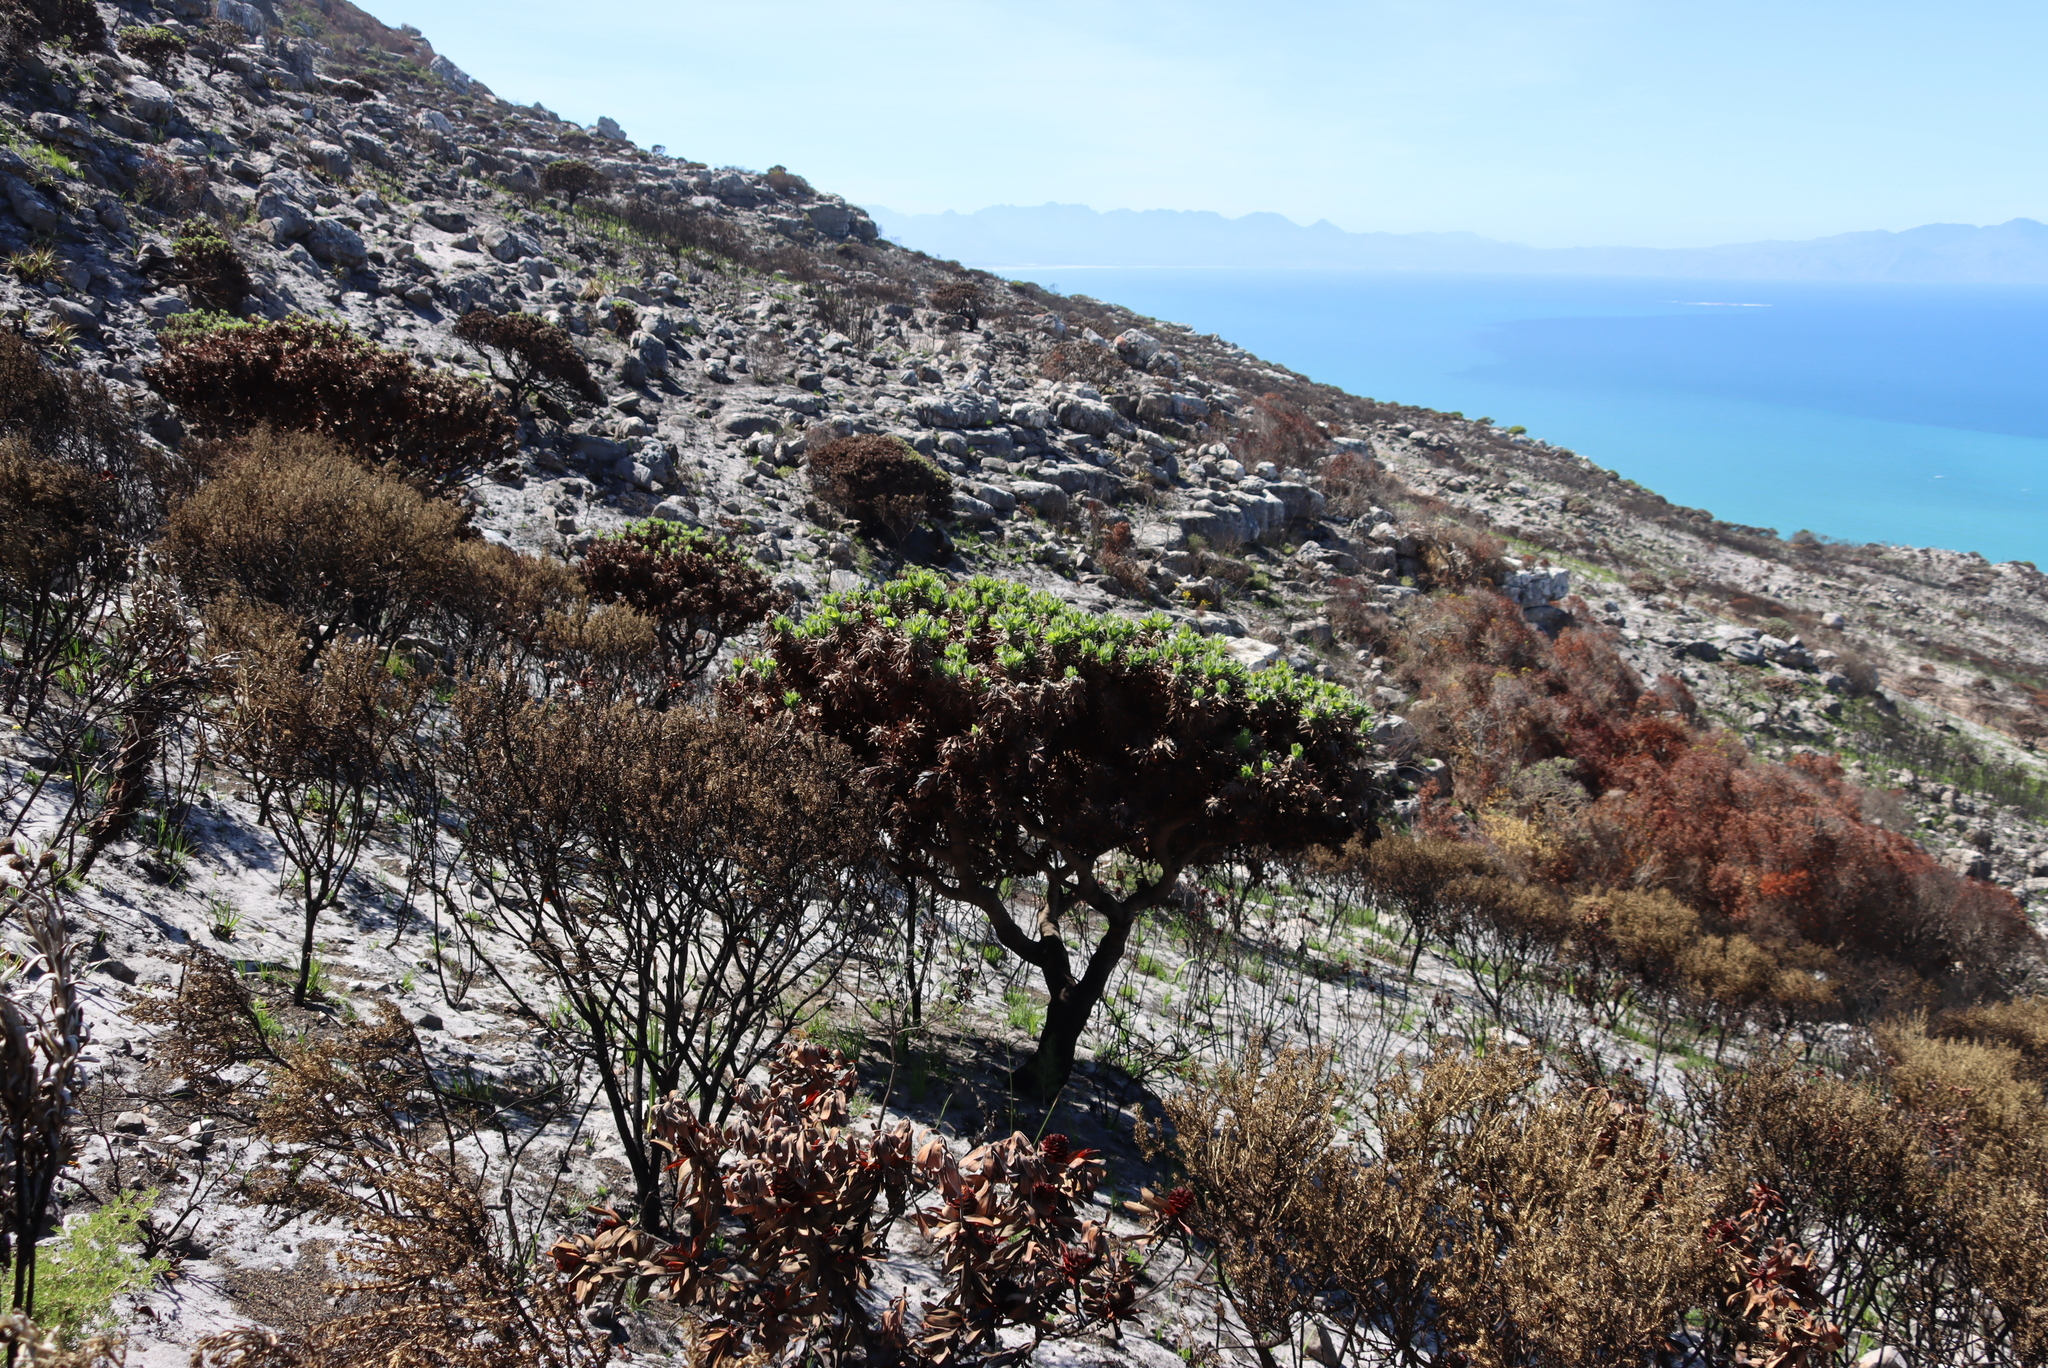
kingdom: Plantae
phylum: Tracheophyta
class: Magnoliopsida
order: Proteales
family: Proteaceae
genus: Mimetes
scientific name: Mimetes fimbriifolius
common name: Fringed bottlebrush
